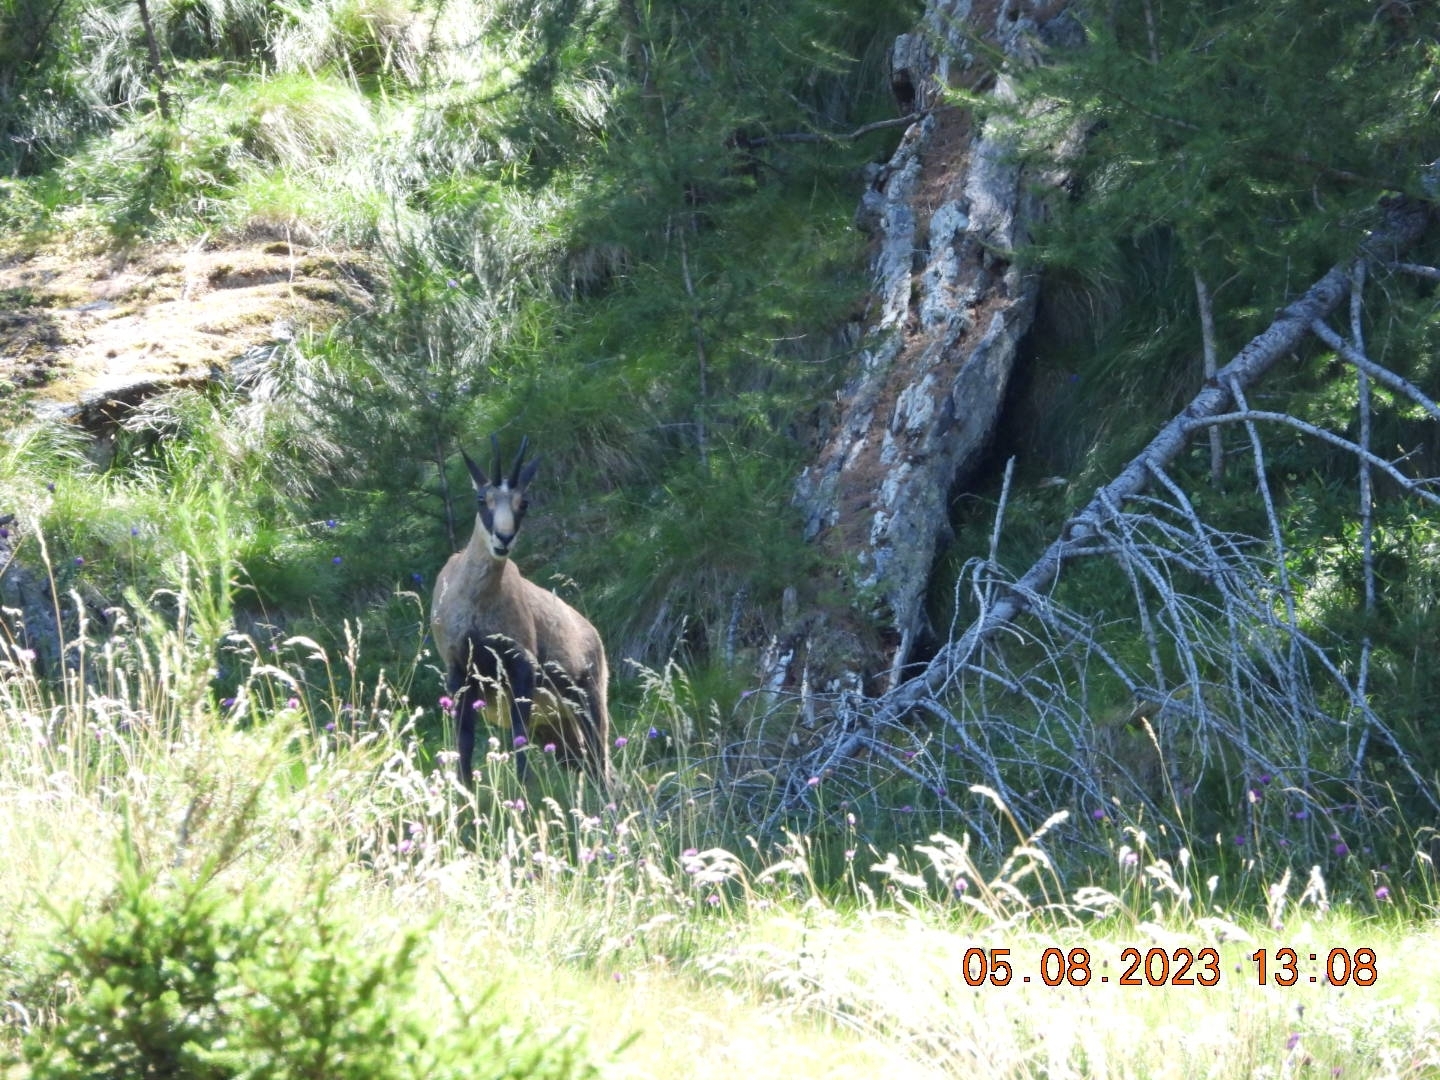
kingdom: Animalia
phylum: Chordata
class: Mammalia
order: Artiodactyla
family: Bovidae
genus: Rupicapra
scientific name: Rupicapra rupicapra
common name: Chamois
